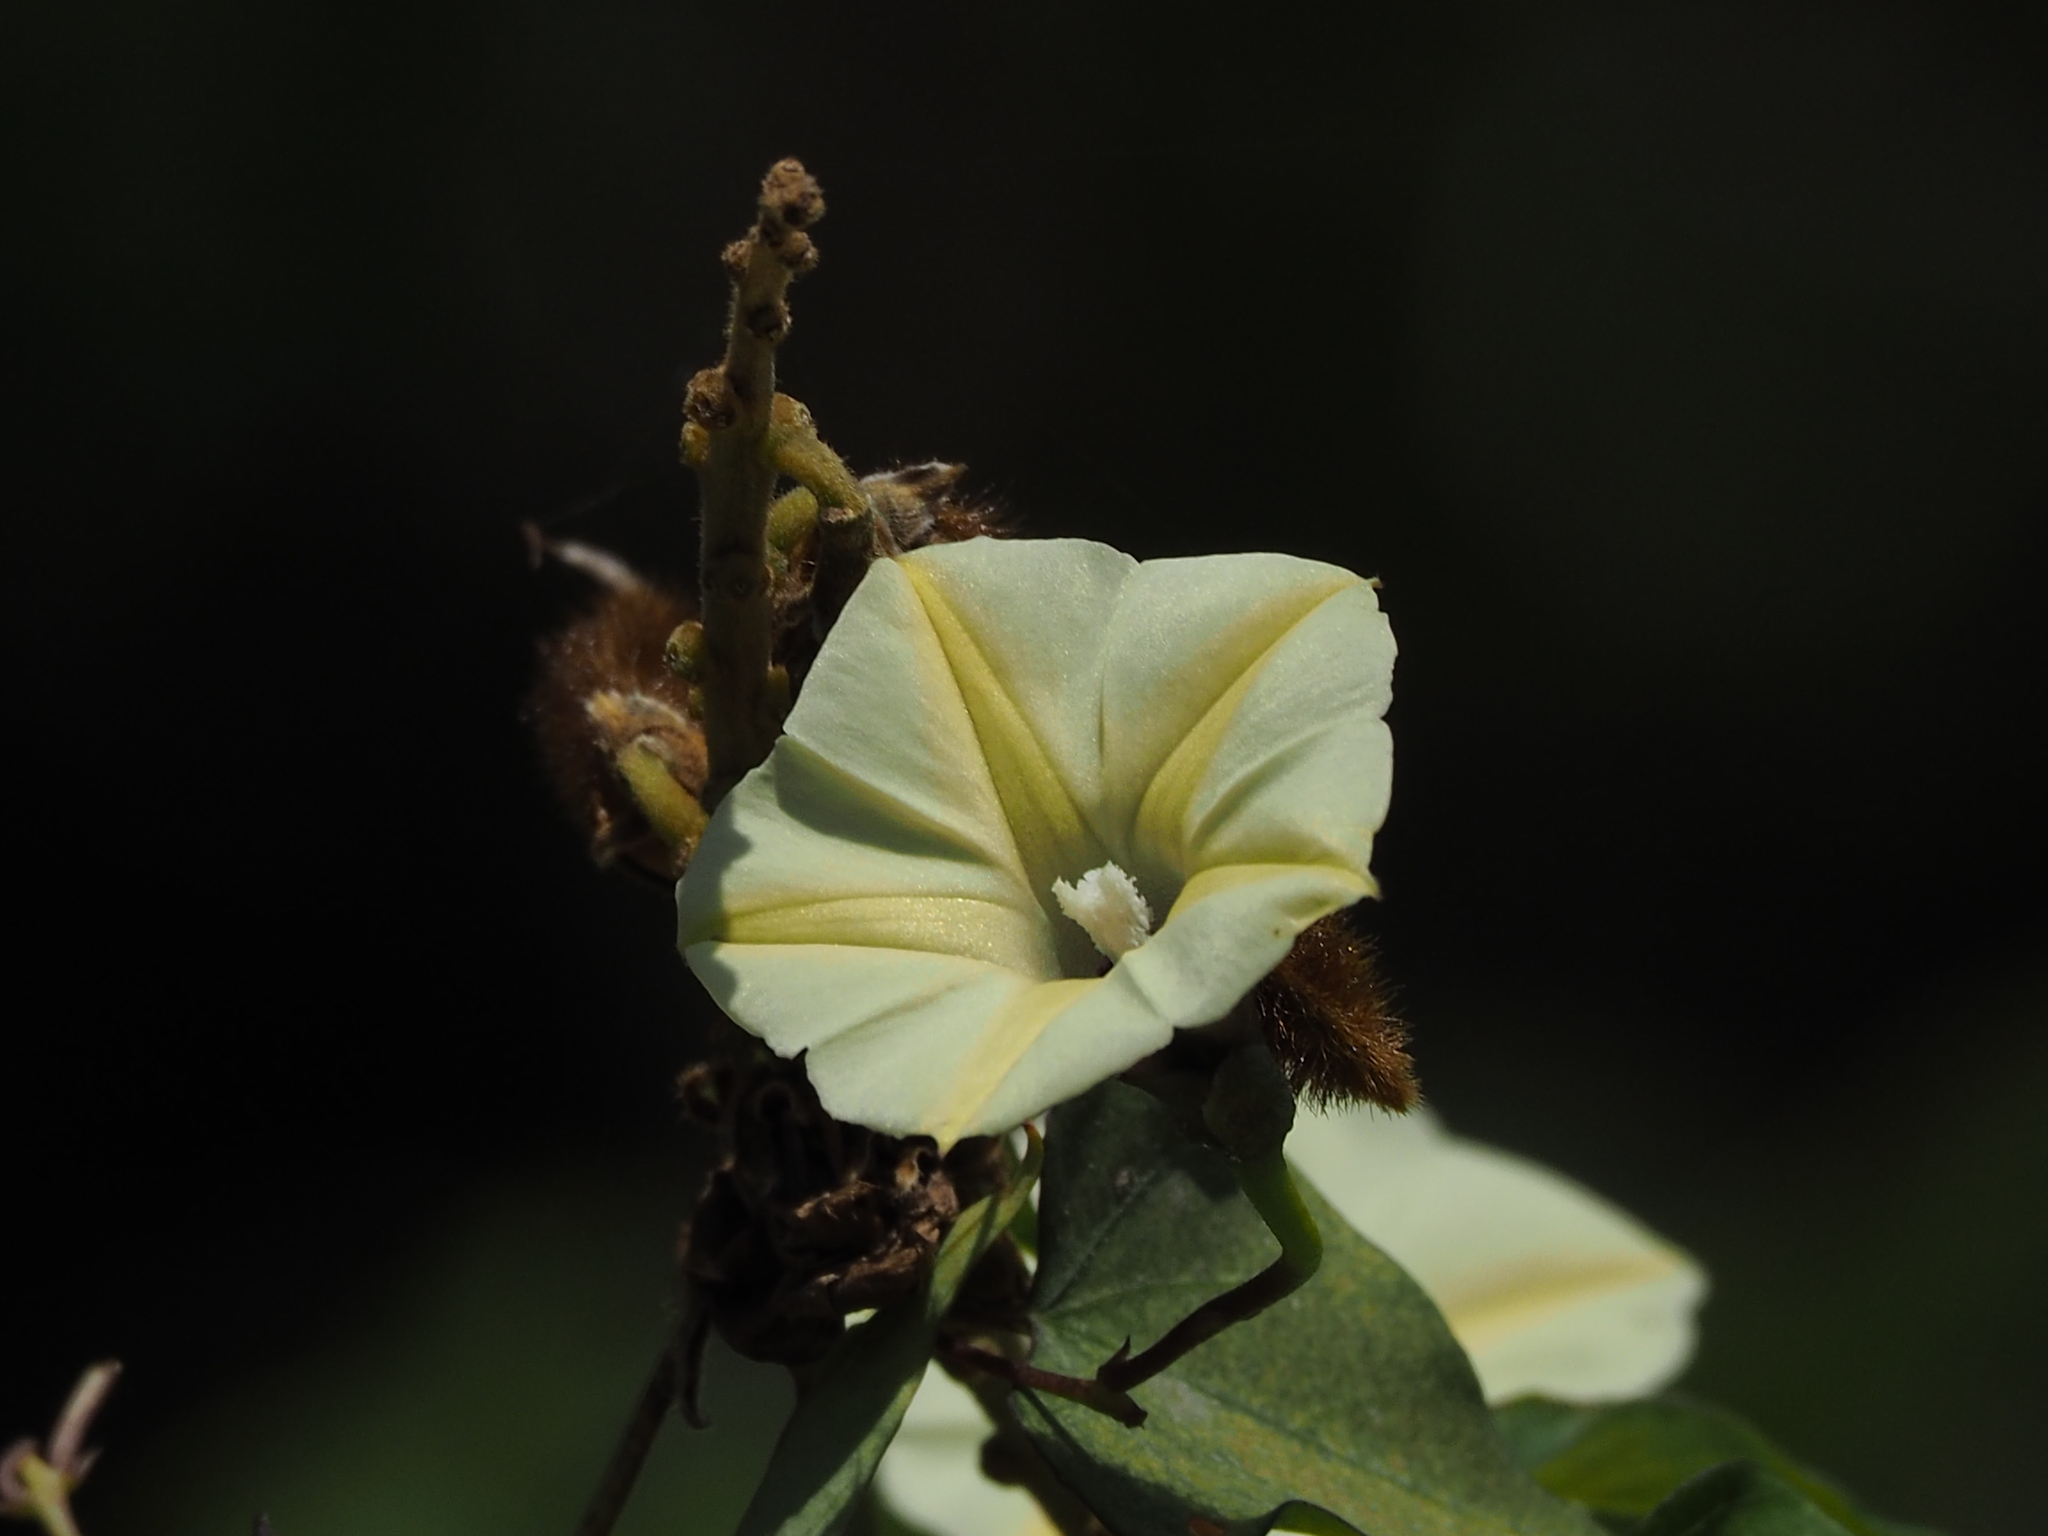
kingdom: Plantae
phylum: Tracheophyta
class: Magnoliopsida
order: Solanales
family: Convolvulaceae
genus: Ipomoea
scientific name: Ipomoea obscura
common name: Obscure morning-glory
